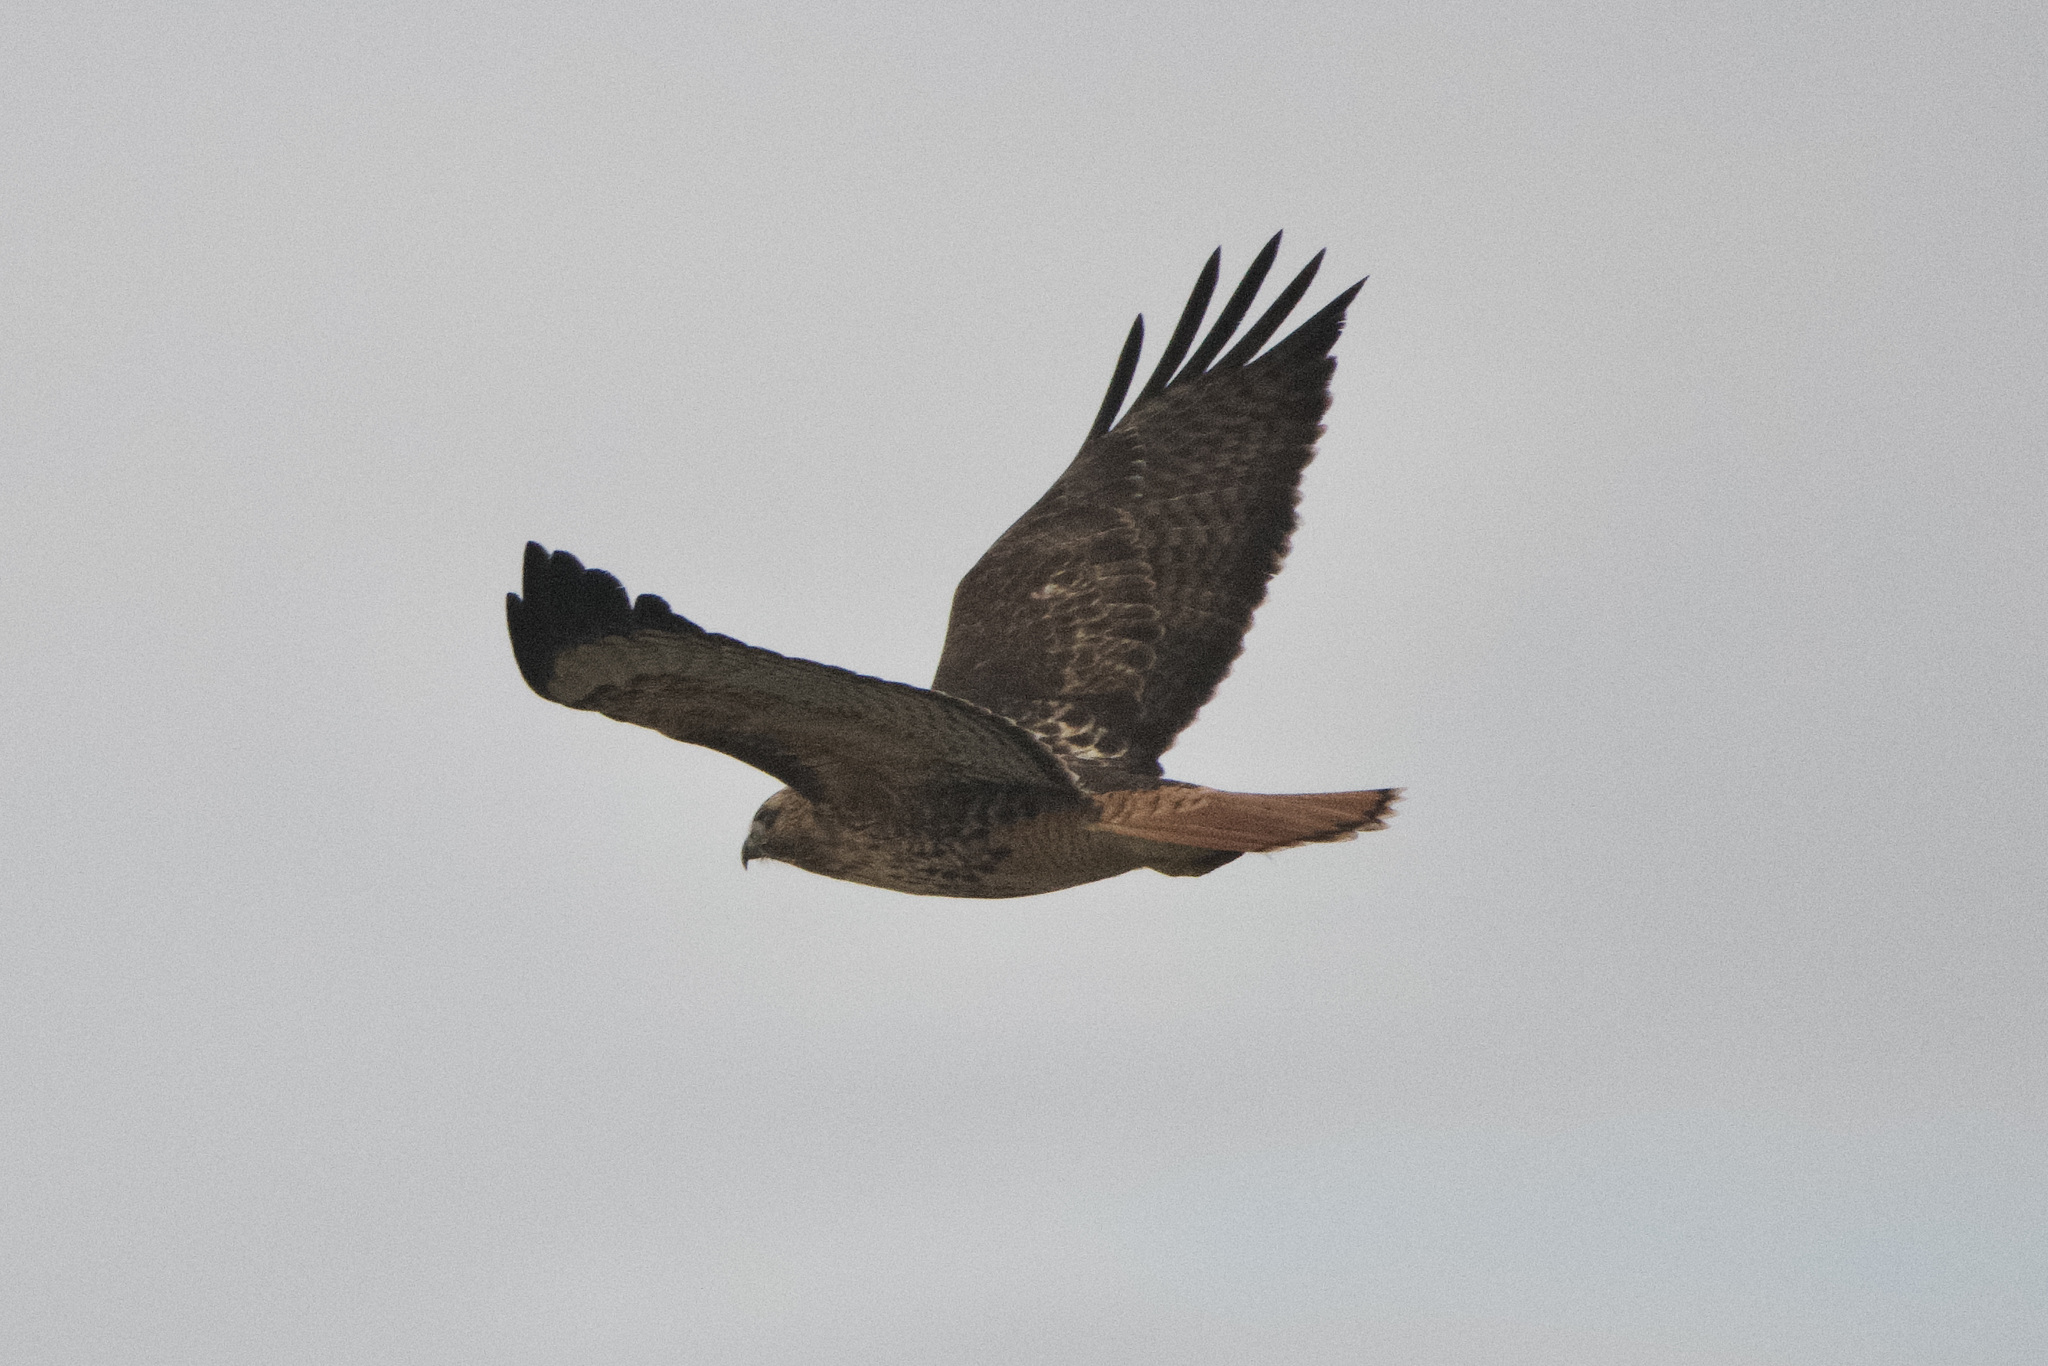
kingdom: Animalia
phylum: Chordata
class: Aves
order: Accipitriformes
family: Accipitridae
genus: Buteo
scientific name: Buteo jamaicensis
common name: Red-tailed hawk
